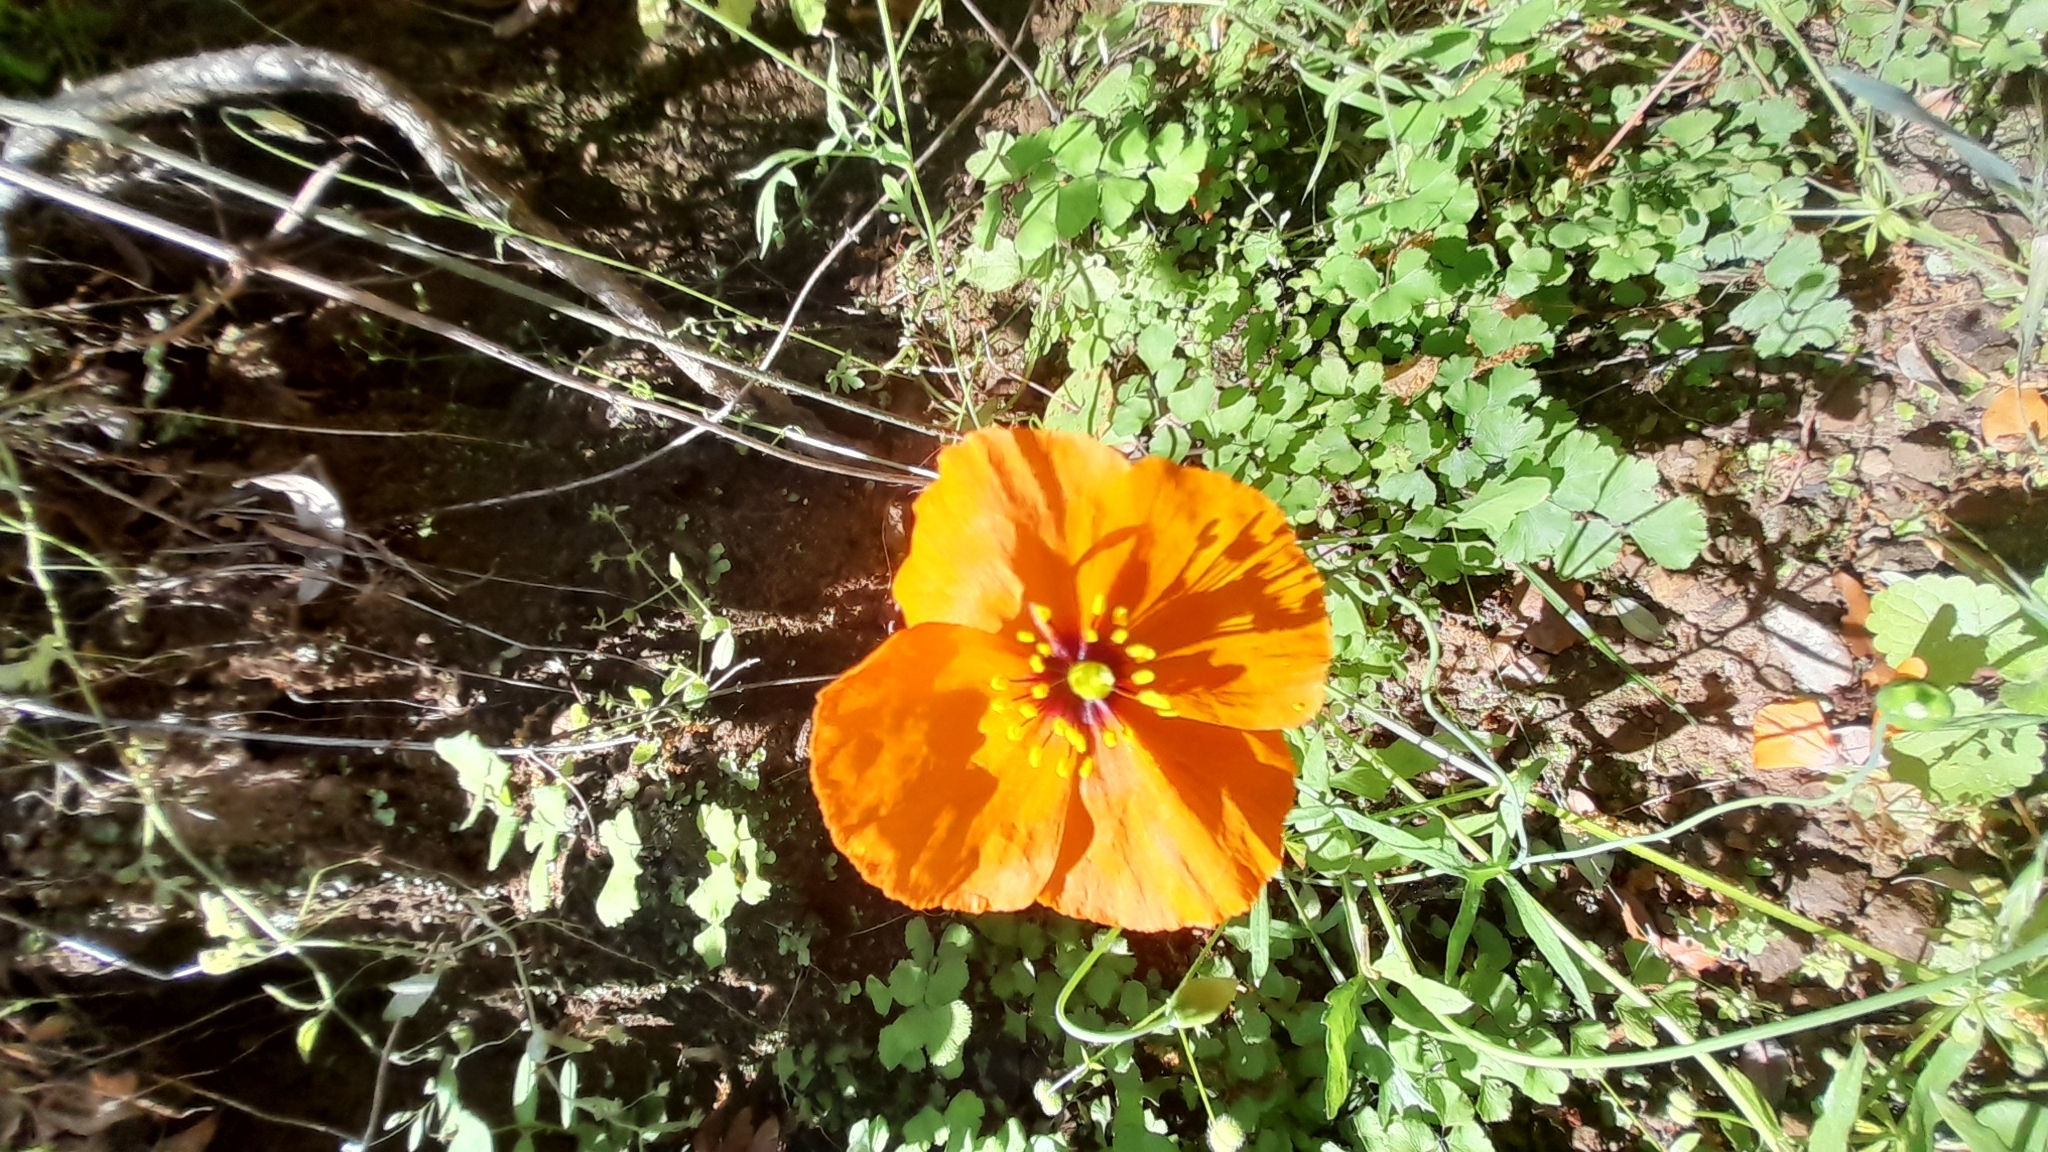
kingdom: Plantae
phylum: Tracheophyta
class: Magnoliopsida
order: Ranunculales
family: Papaveraceae
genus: Stylomecon
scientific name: Stylomecon heterophylla
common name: Flaming-poppy
